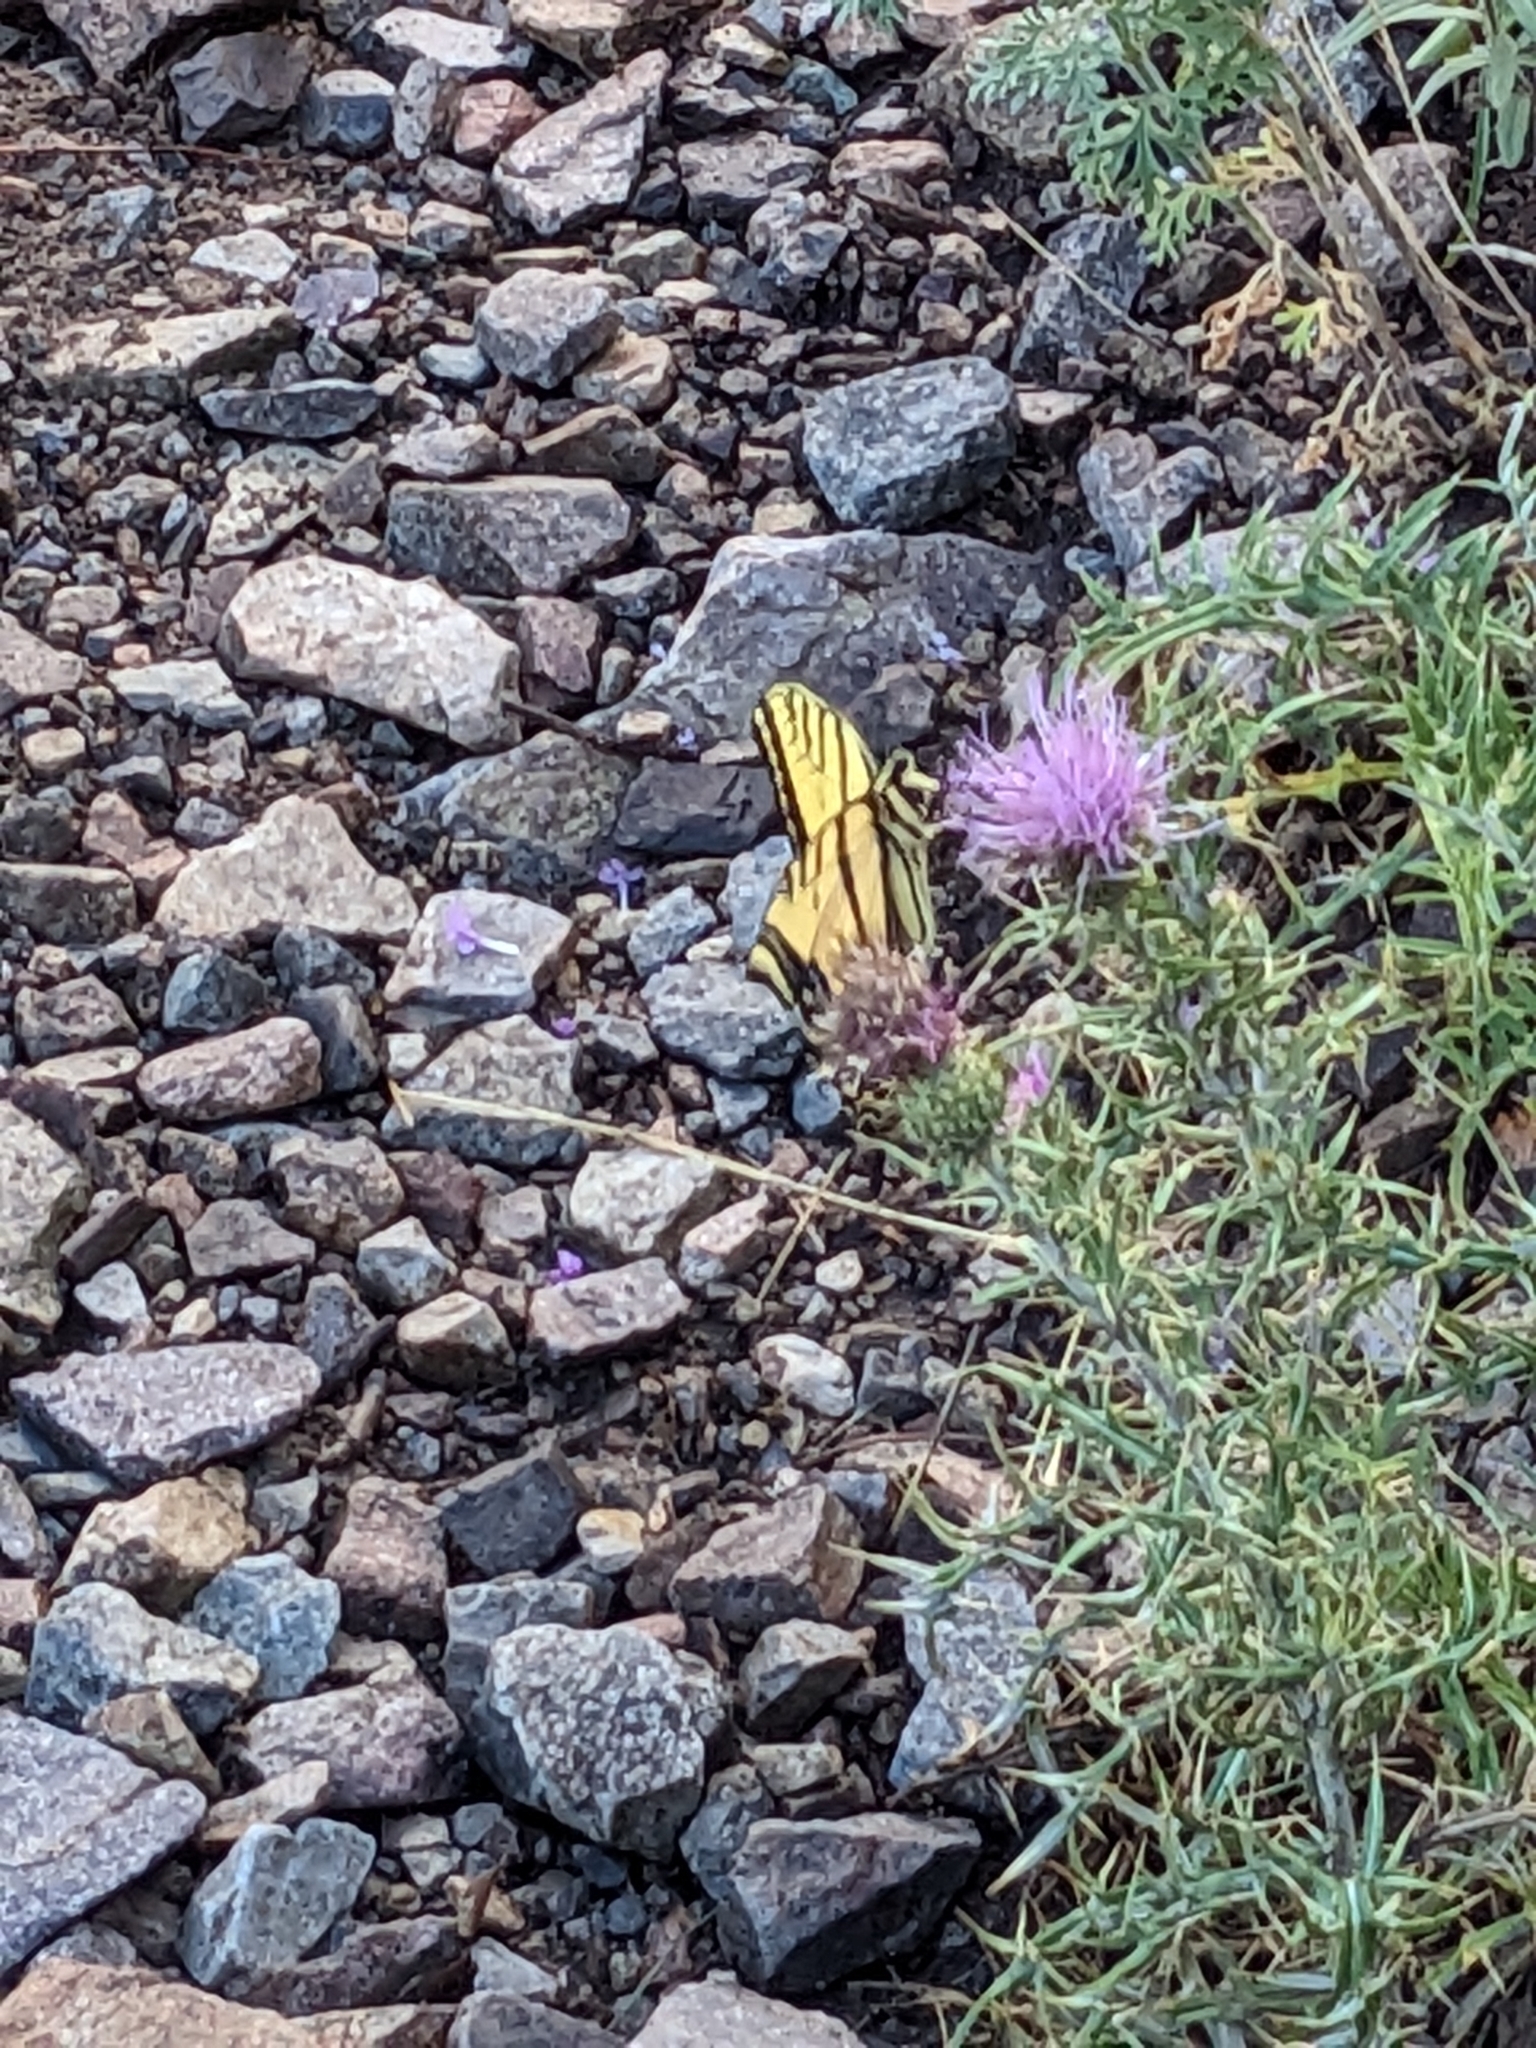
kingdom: Animalia
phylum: Arthropoda
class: Insecta
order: Lepidoptera
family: Papilionidae
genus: Papilio
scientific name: Papilio multicaudata
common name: Two-tailed tiger swallowtail
